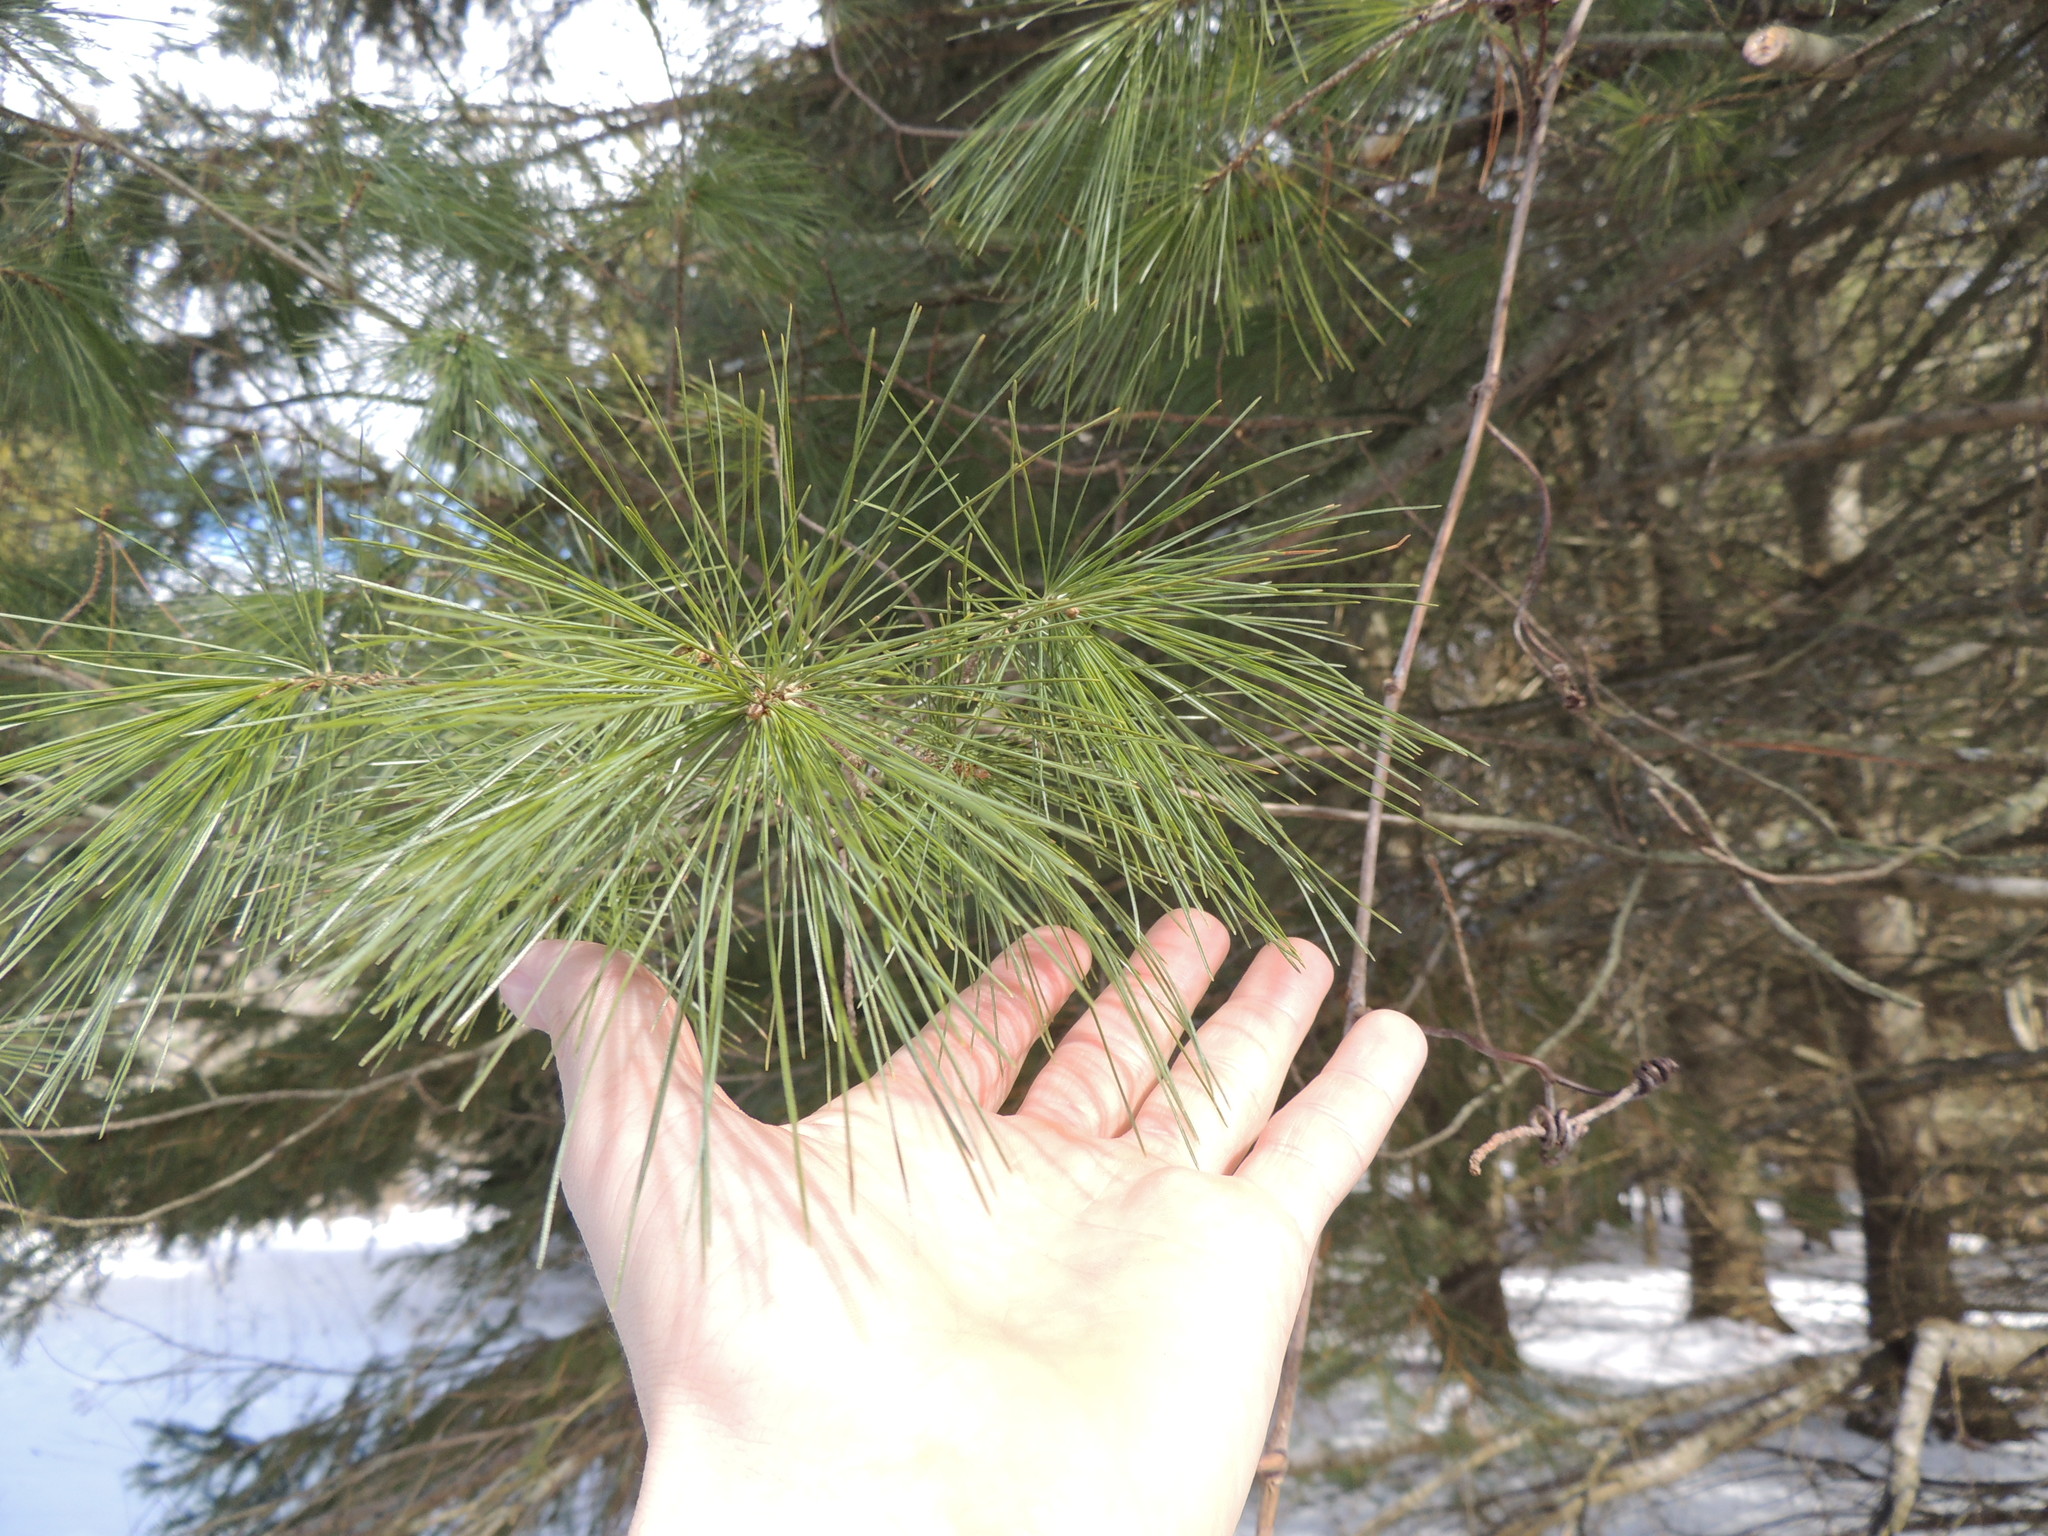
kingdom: Plantae
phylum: Tracheophyta
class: Pinopsida
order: Pinales
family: Pinaceae
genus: Pinus
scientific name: Pinus strobus
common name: Weymouth pine
